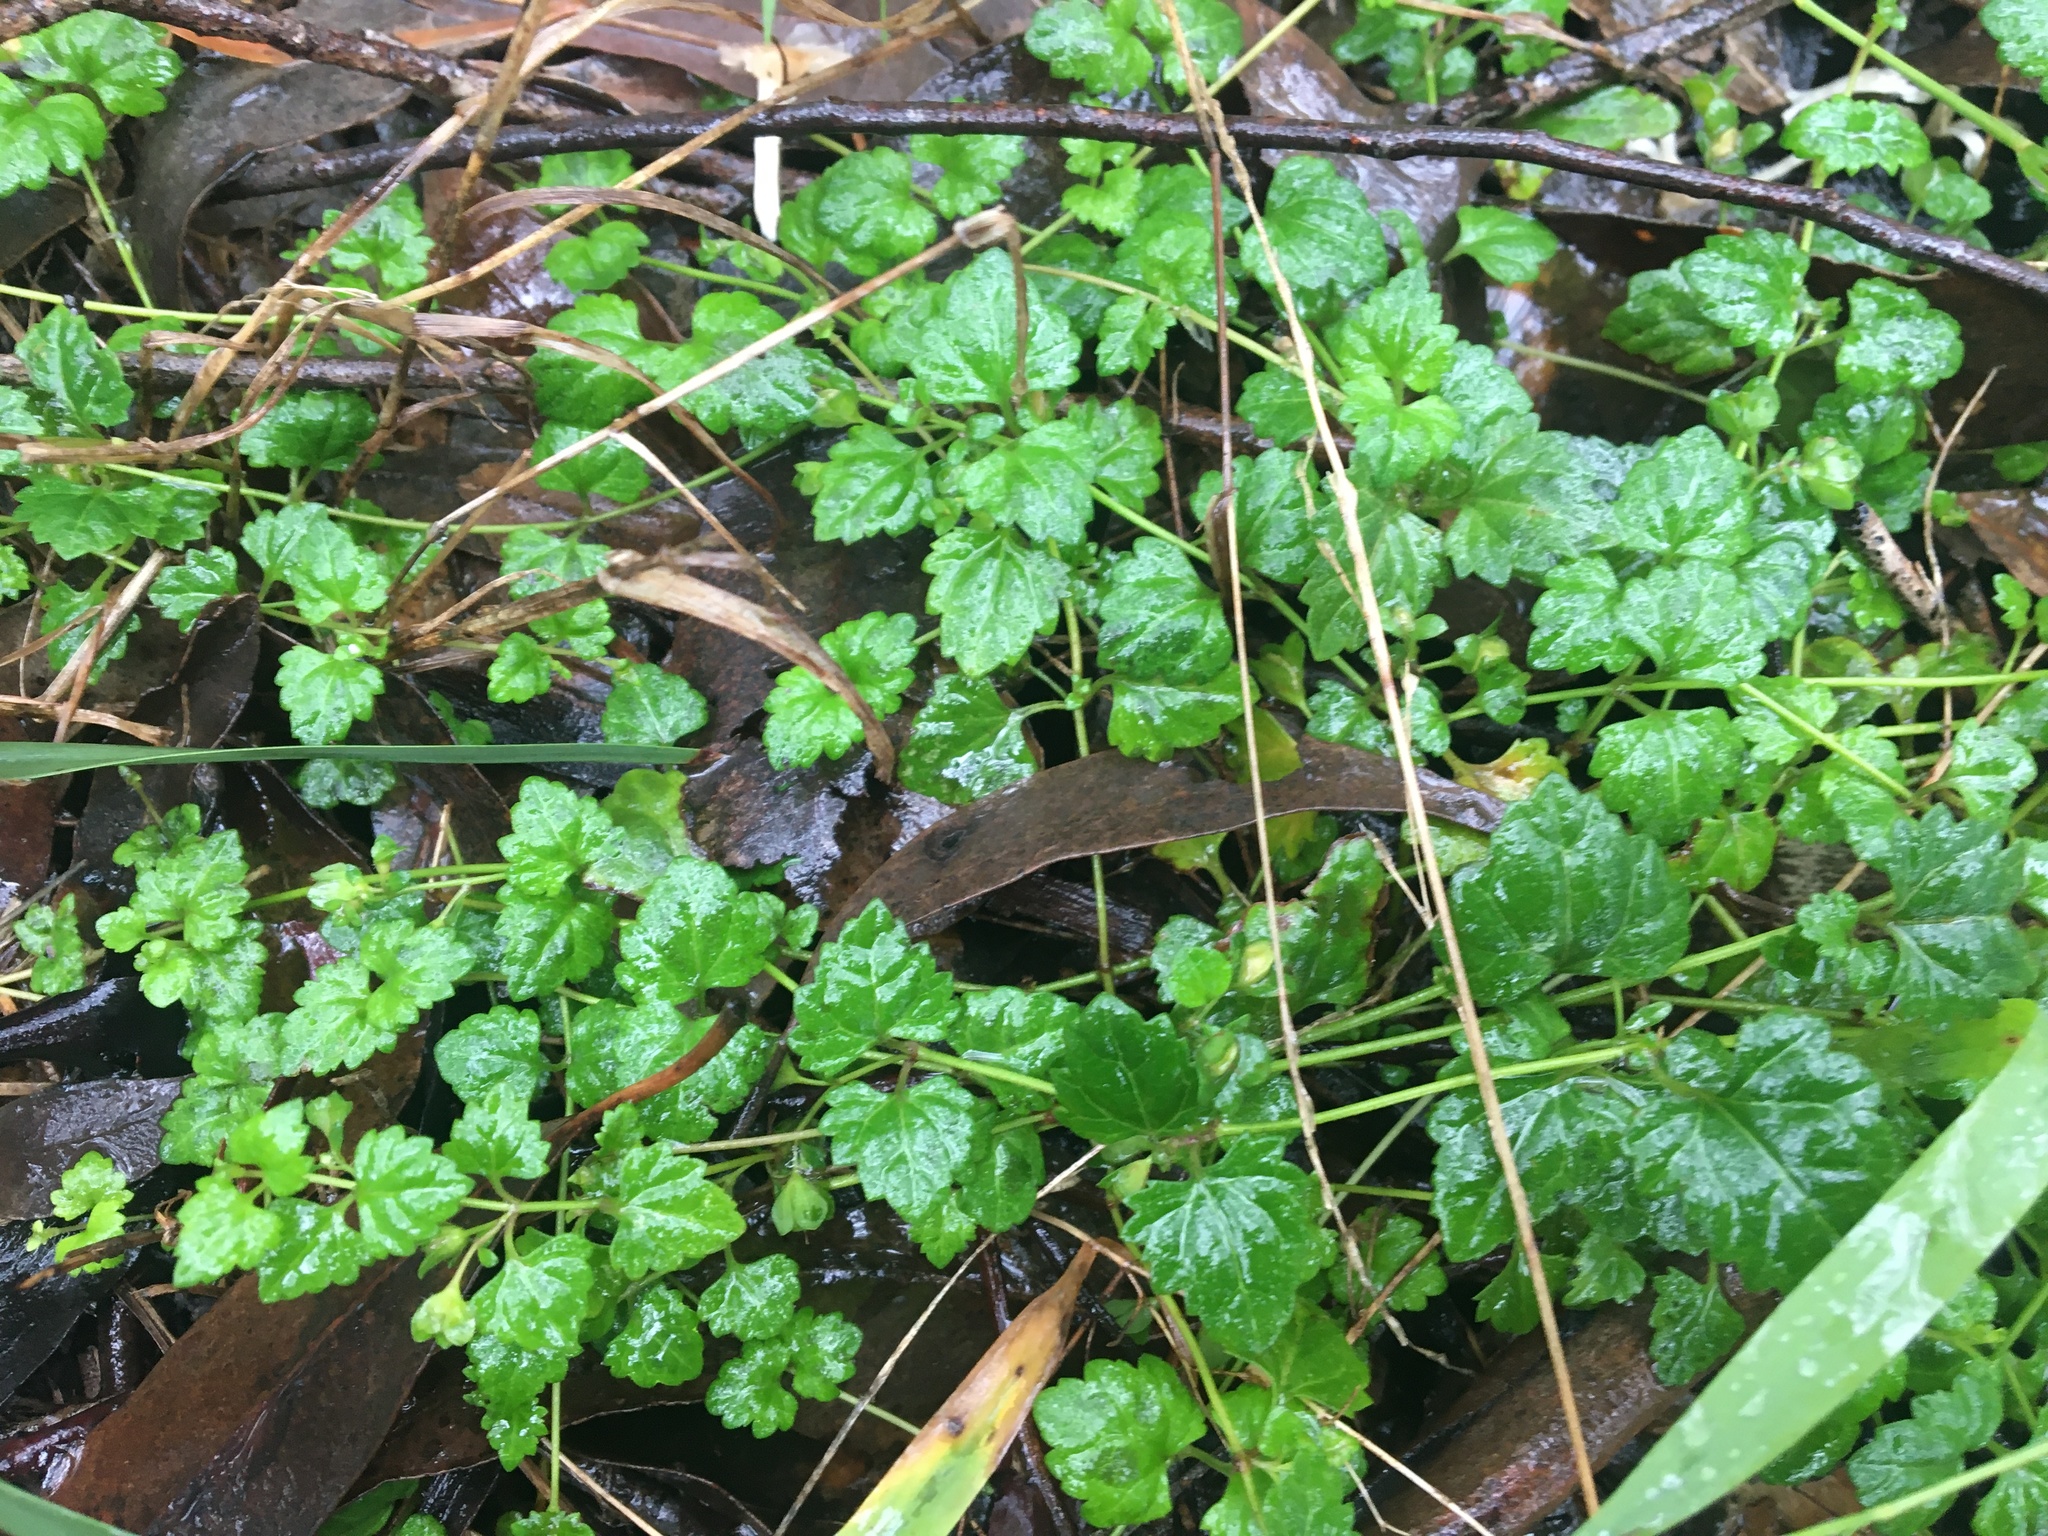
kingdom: Plantae
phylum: Tracheophyta
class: Magnoliopsida
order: Lamiales
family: Plantaginaceae
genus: Veronica
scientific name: Veronica plebeia
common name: Speedwell
